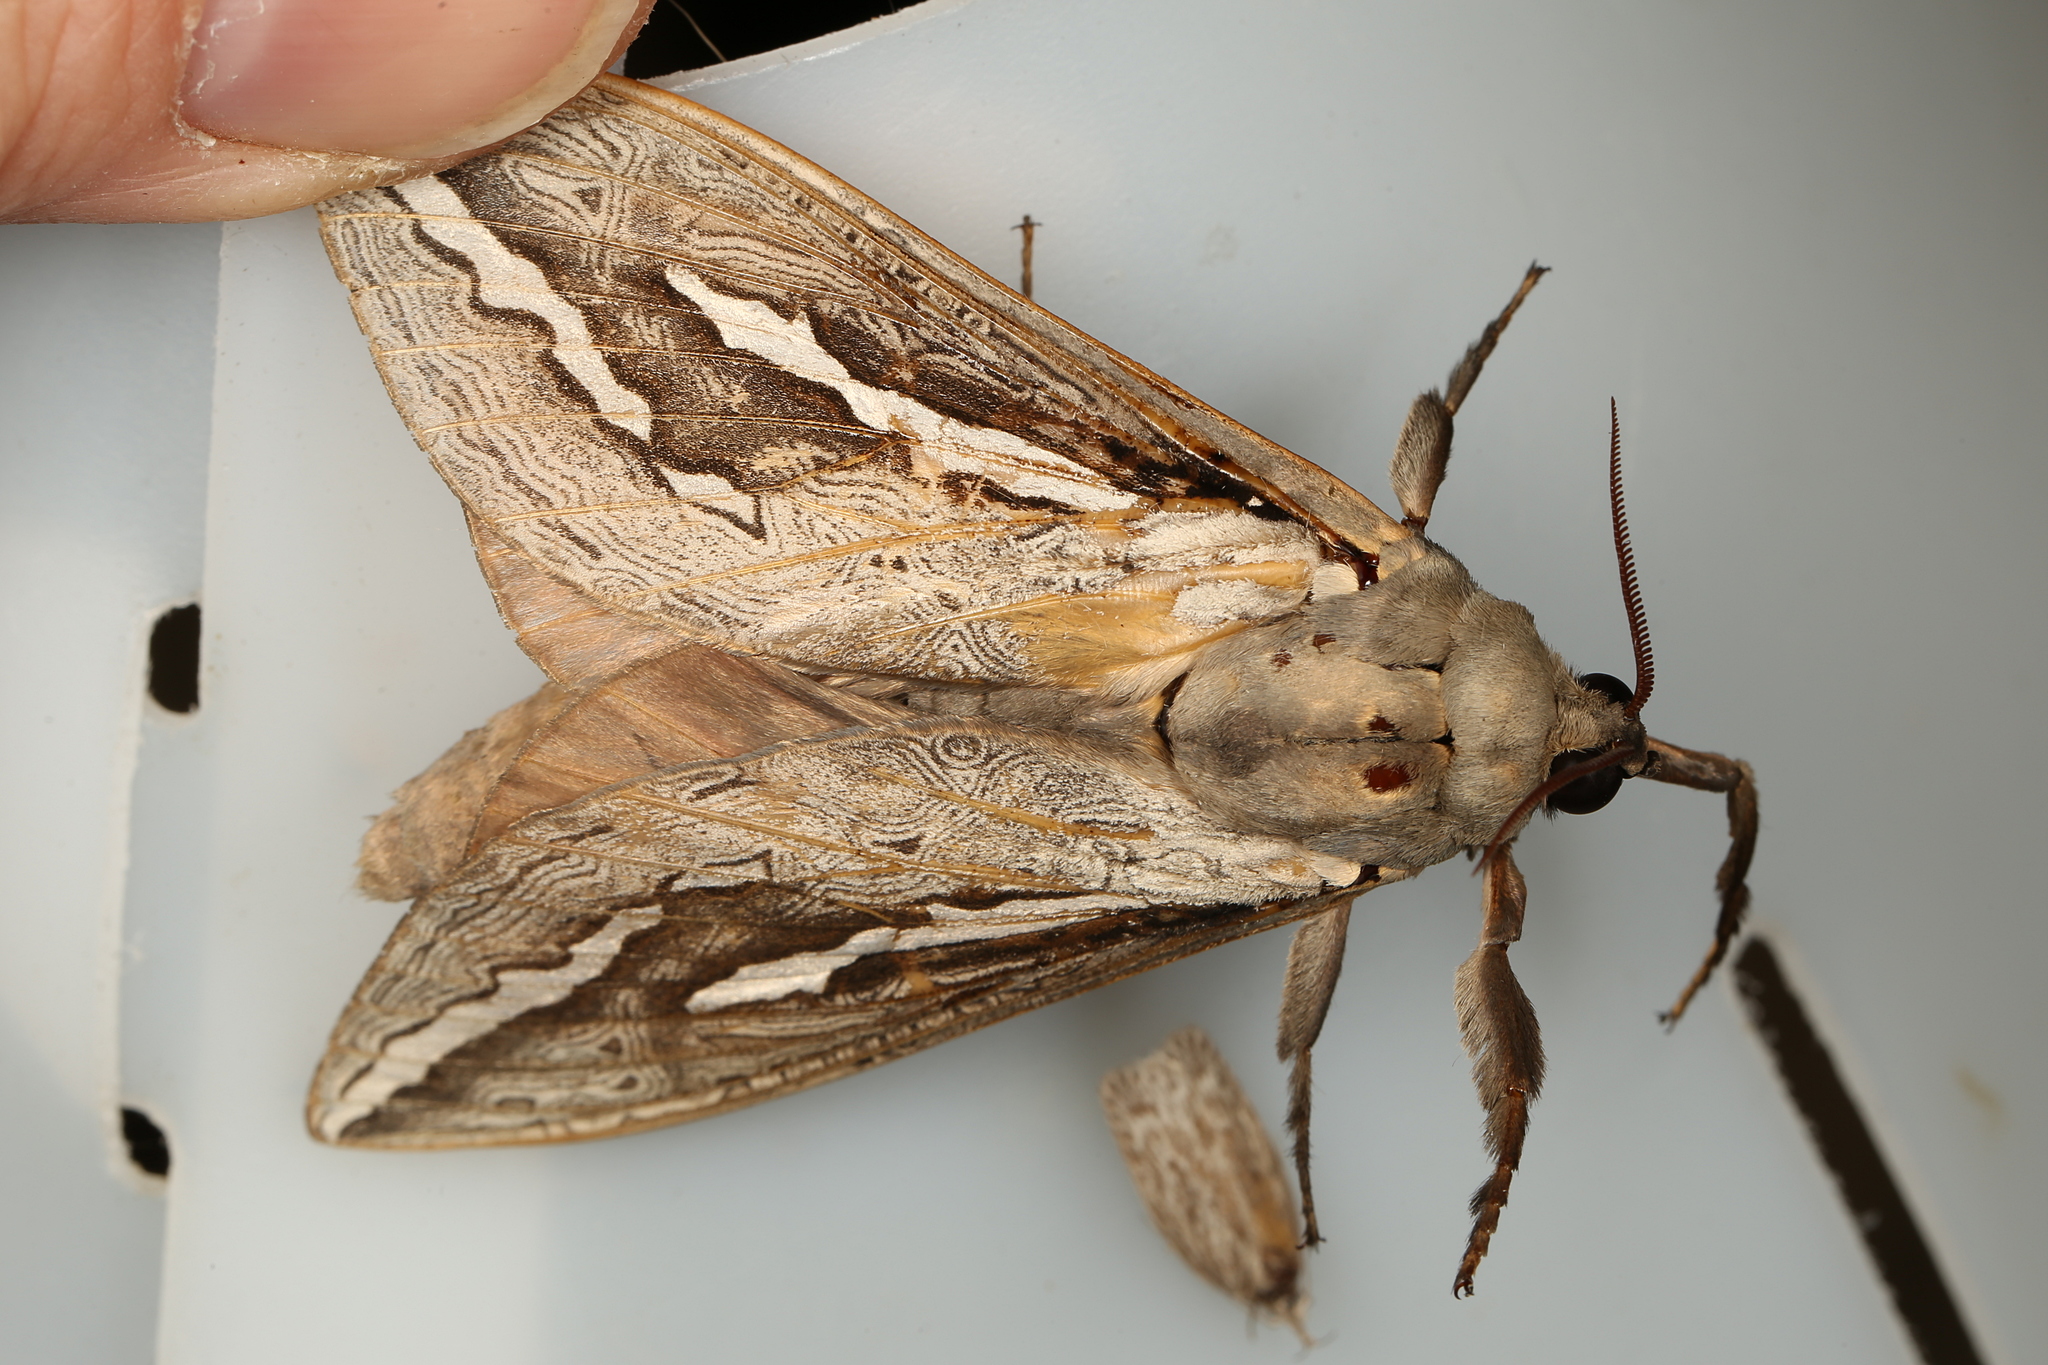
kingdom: Animalia
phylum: Arthropoda
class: Insecta
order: Lepidoptera
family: Hepialidae
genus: Abantiades
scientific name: Abantiades labyrinthicus
